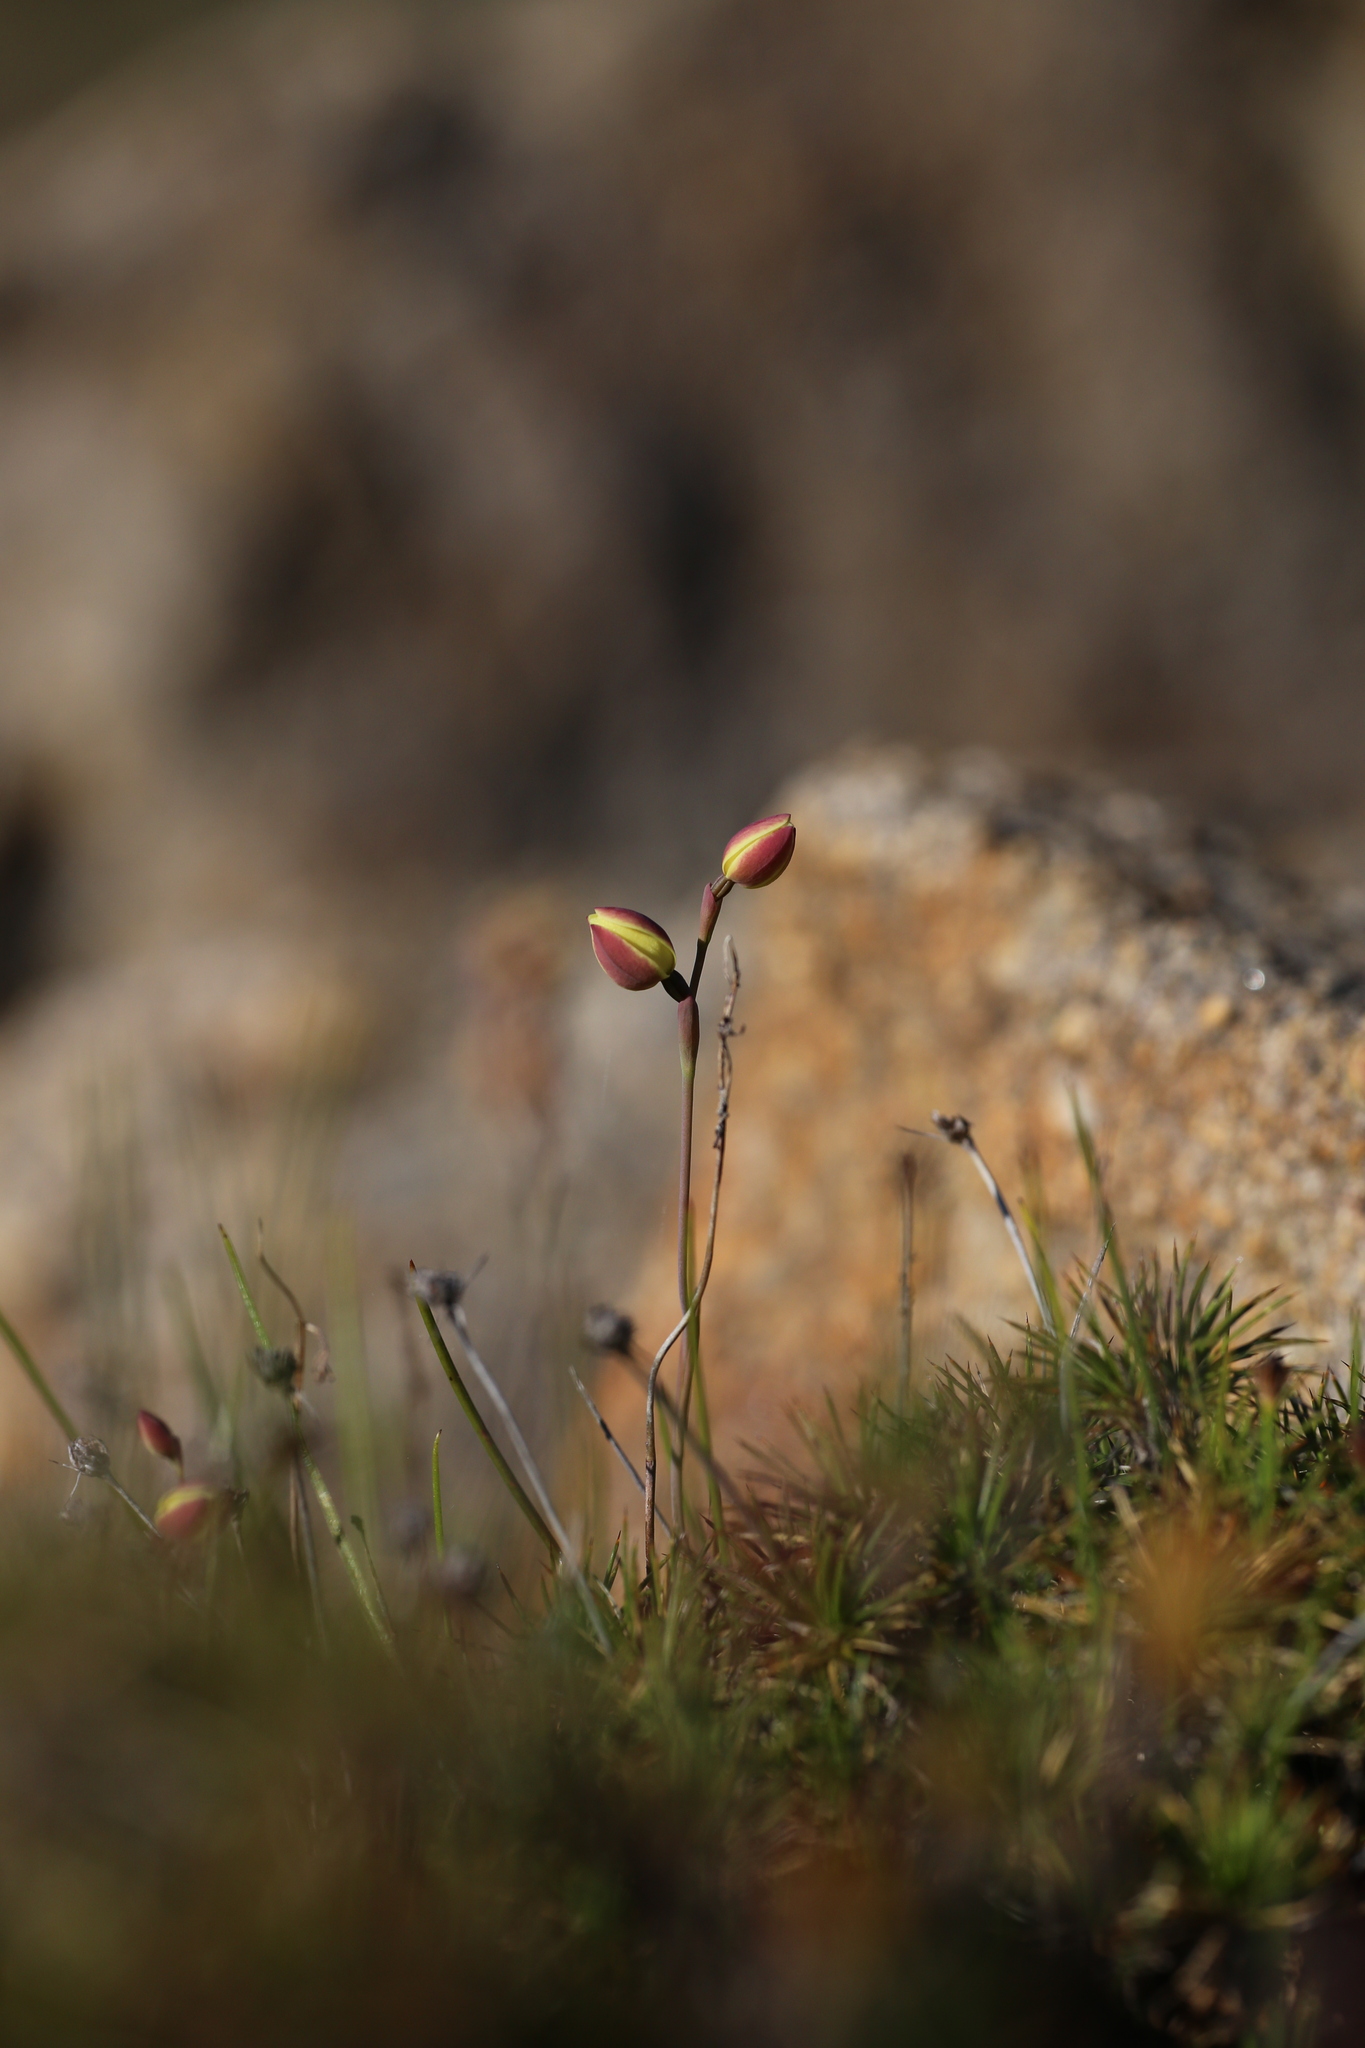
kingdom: Plantae
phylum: Tracheophyta
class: Liliopsida
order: Asparagales
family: Orchidaceae
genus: Thelymitra
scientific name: Thelymitra antennifera
